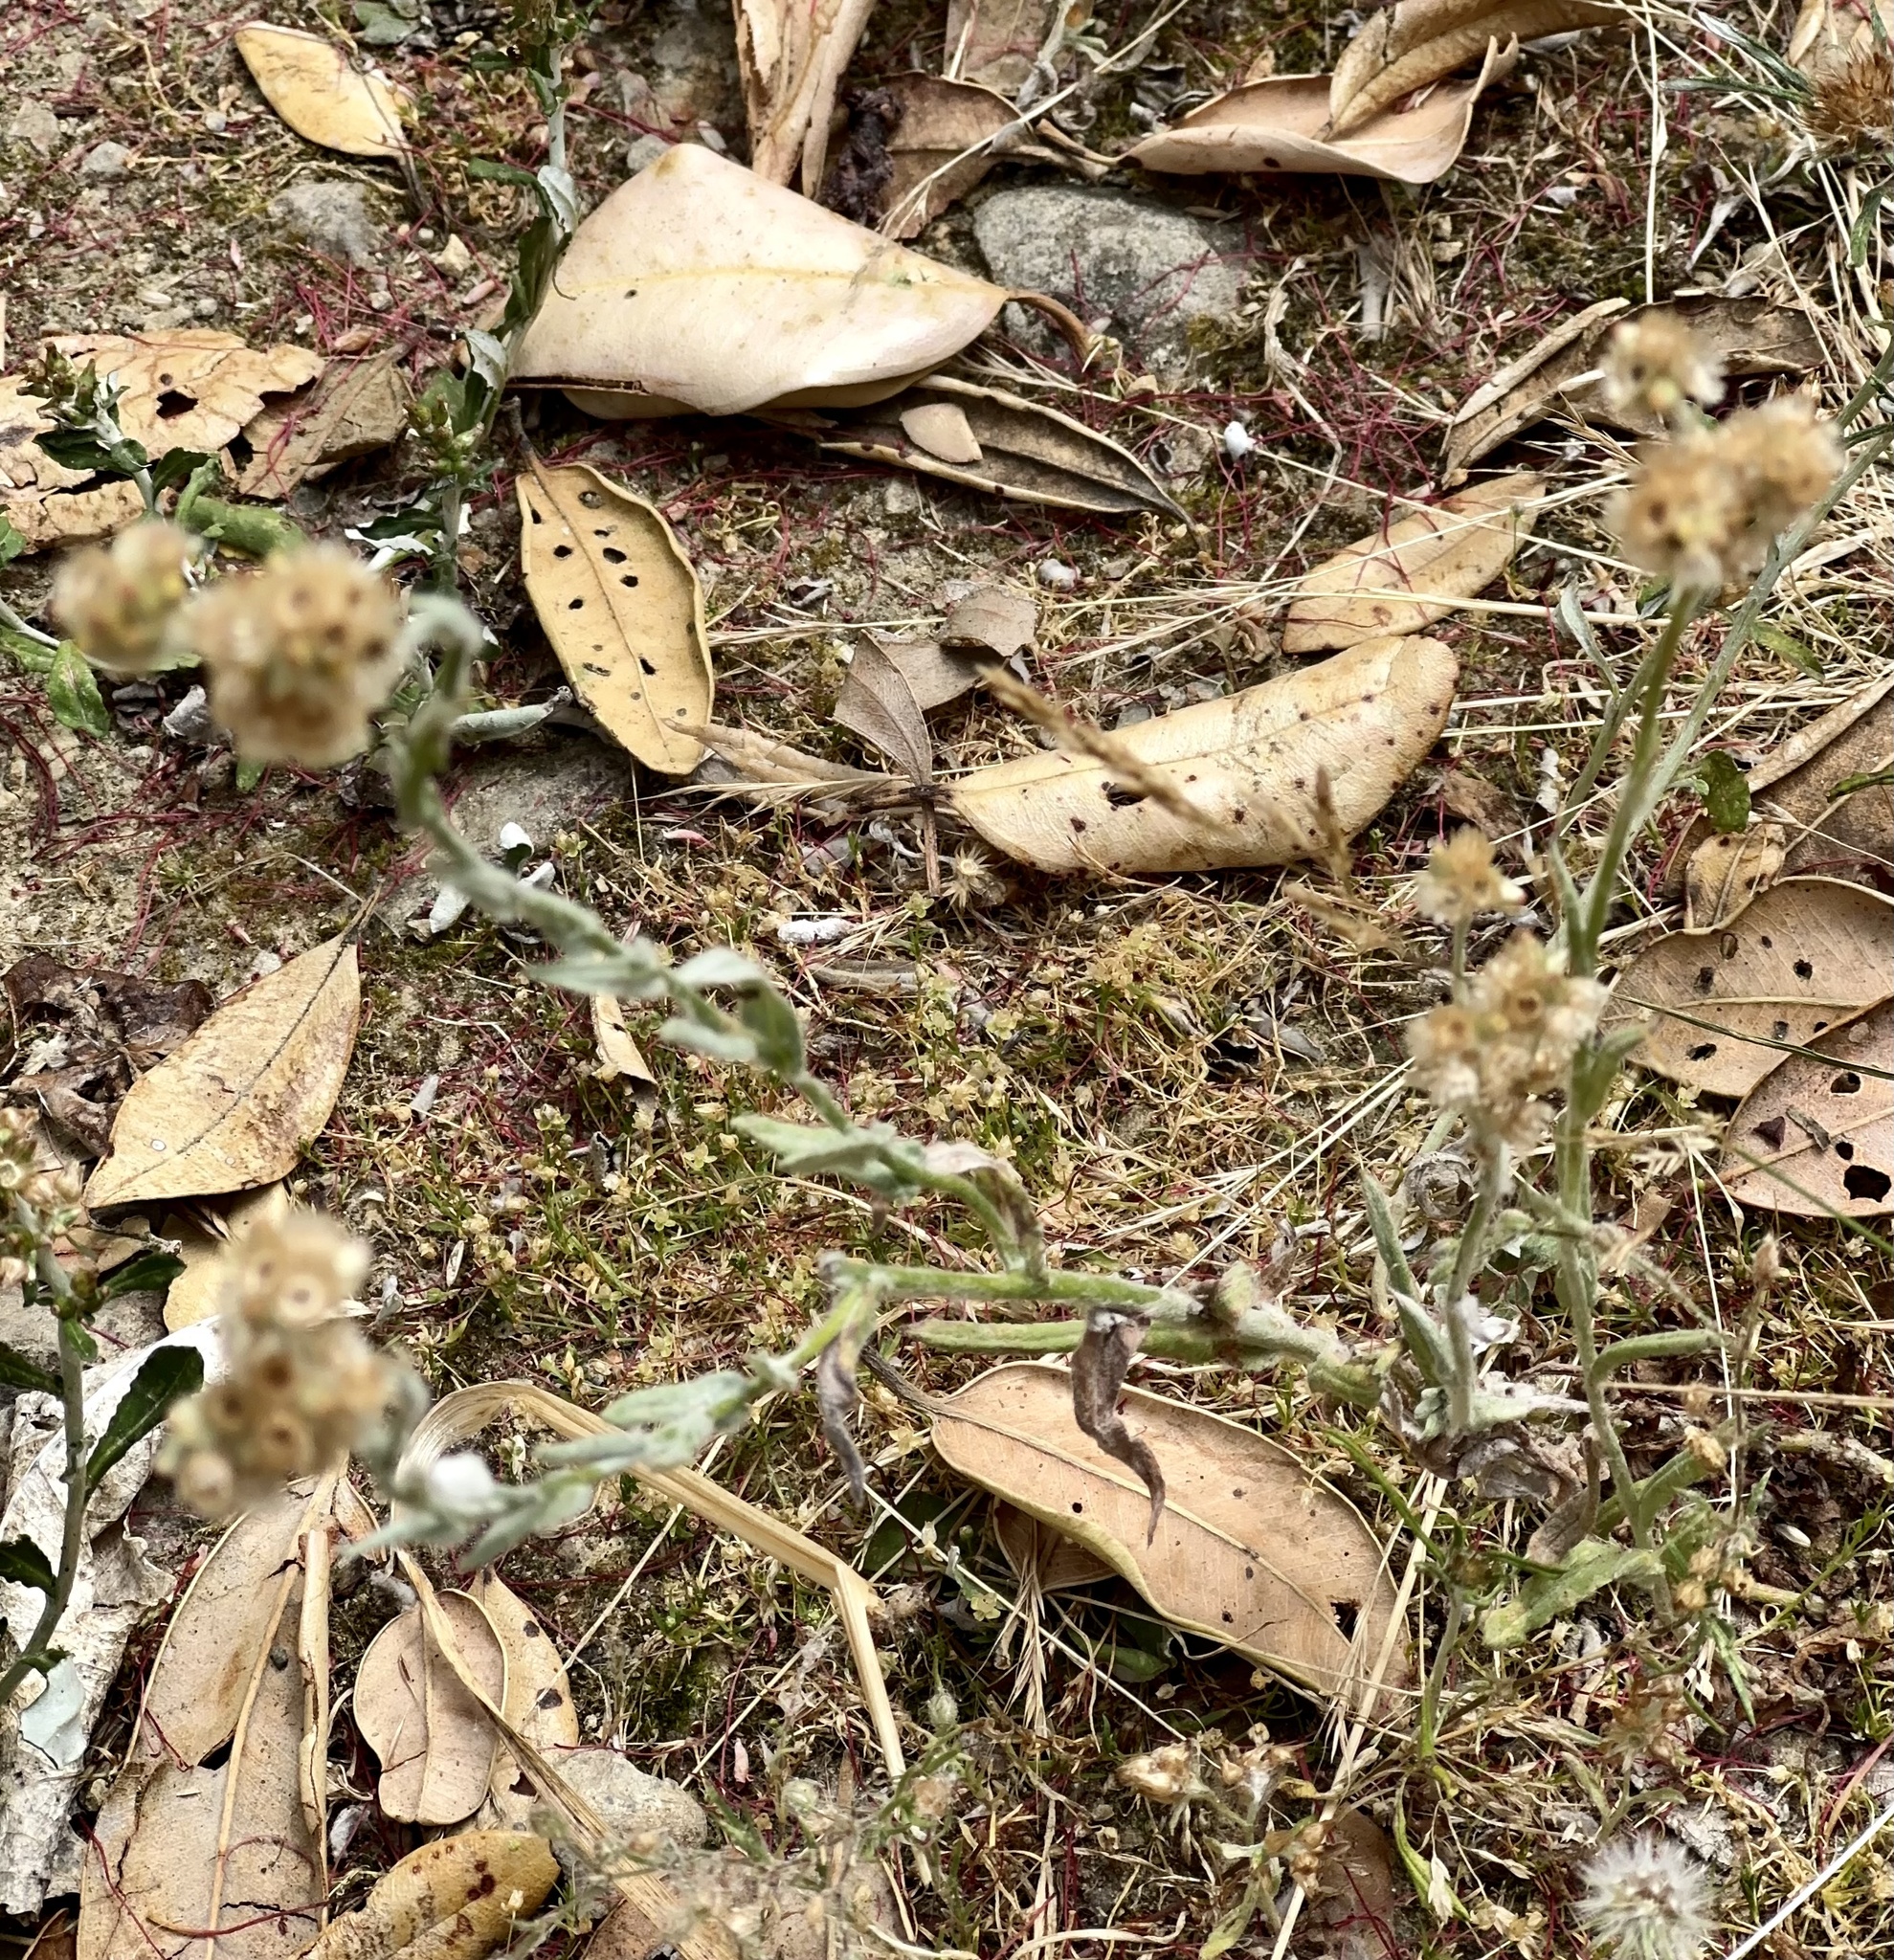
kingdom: Plantae
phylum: Tracheophyta
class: Magnoliopsida
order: Asterales
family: Asteraceae
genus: Helichrysum
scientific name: Helichrysum luteoalbum
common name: Daisy
